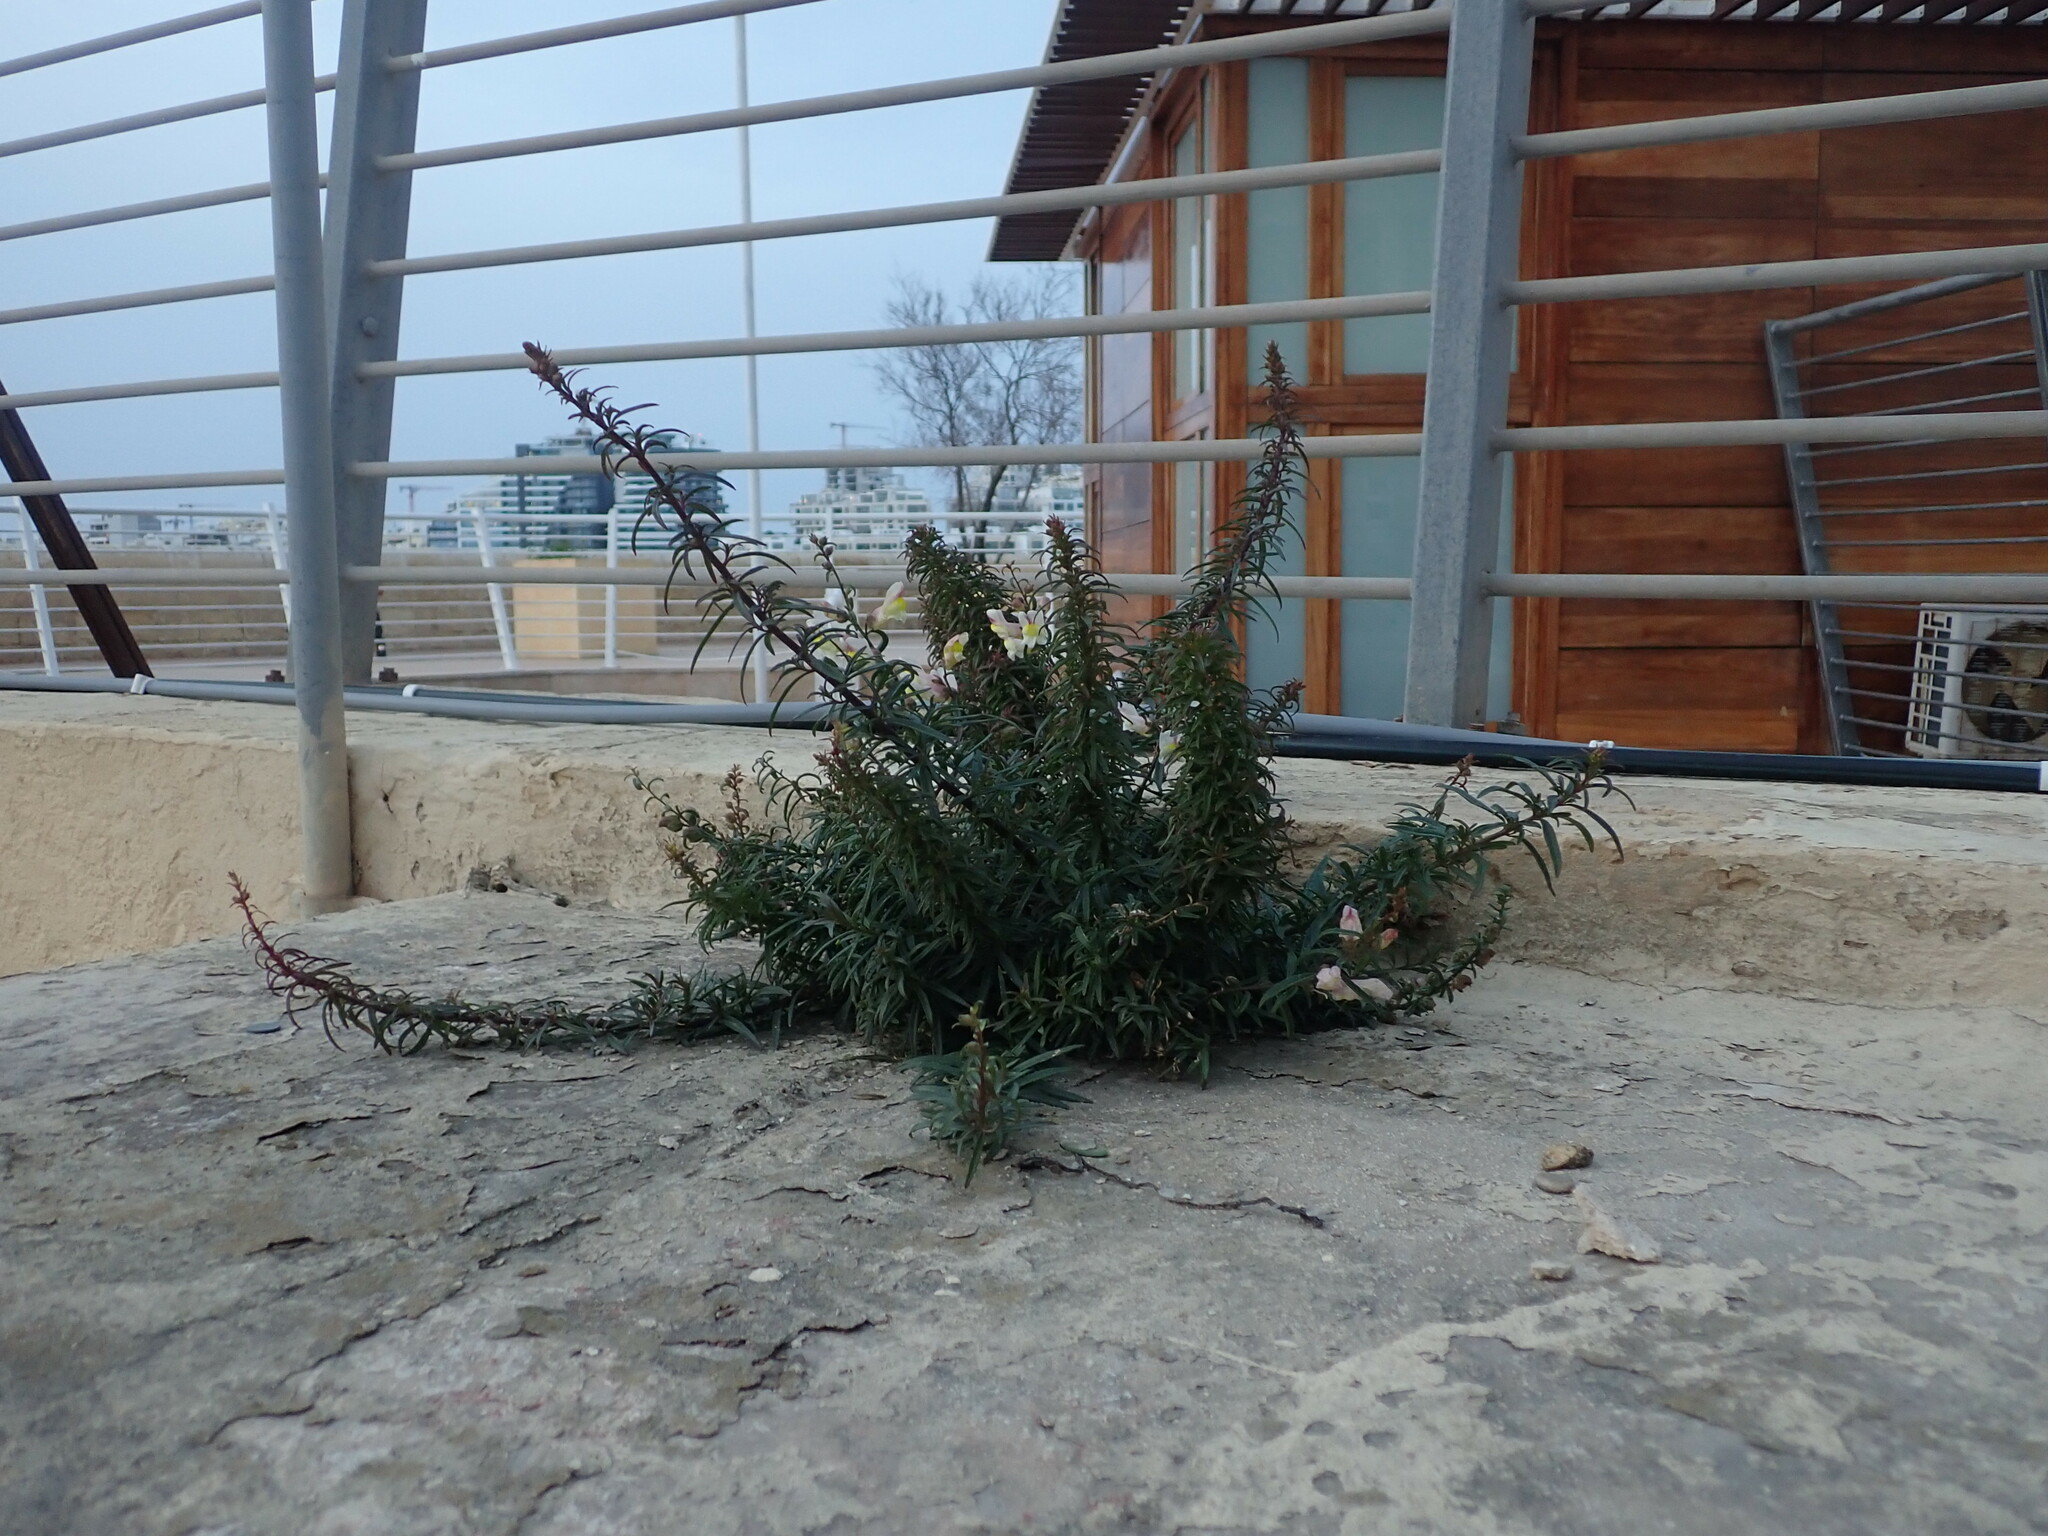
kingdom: Plantae
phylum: Tracheophyta
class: Magnoliopsida
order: Lamiales
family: Plantaginaceae
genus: Antirrhinum
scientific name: Antirrhinum siculum
